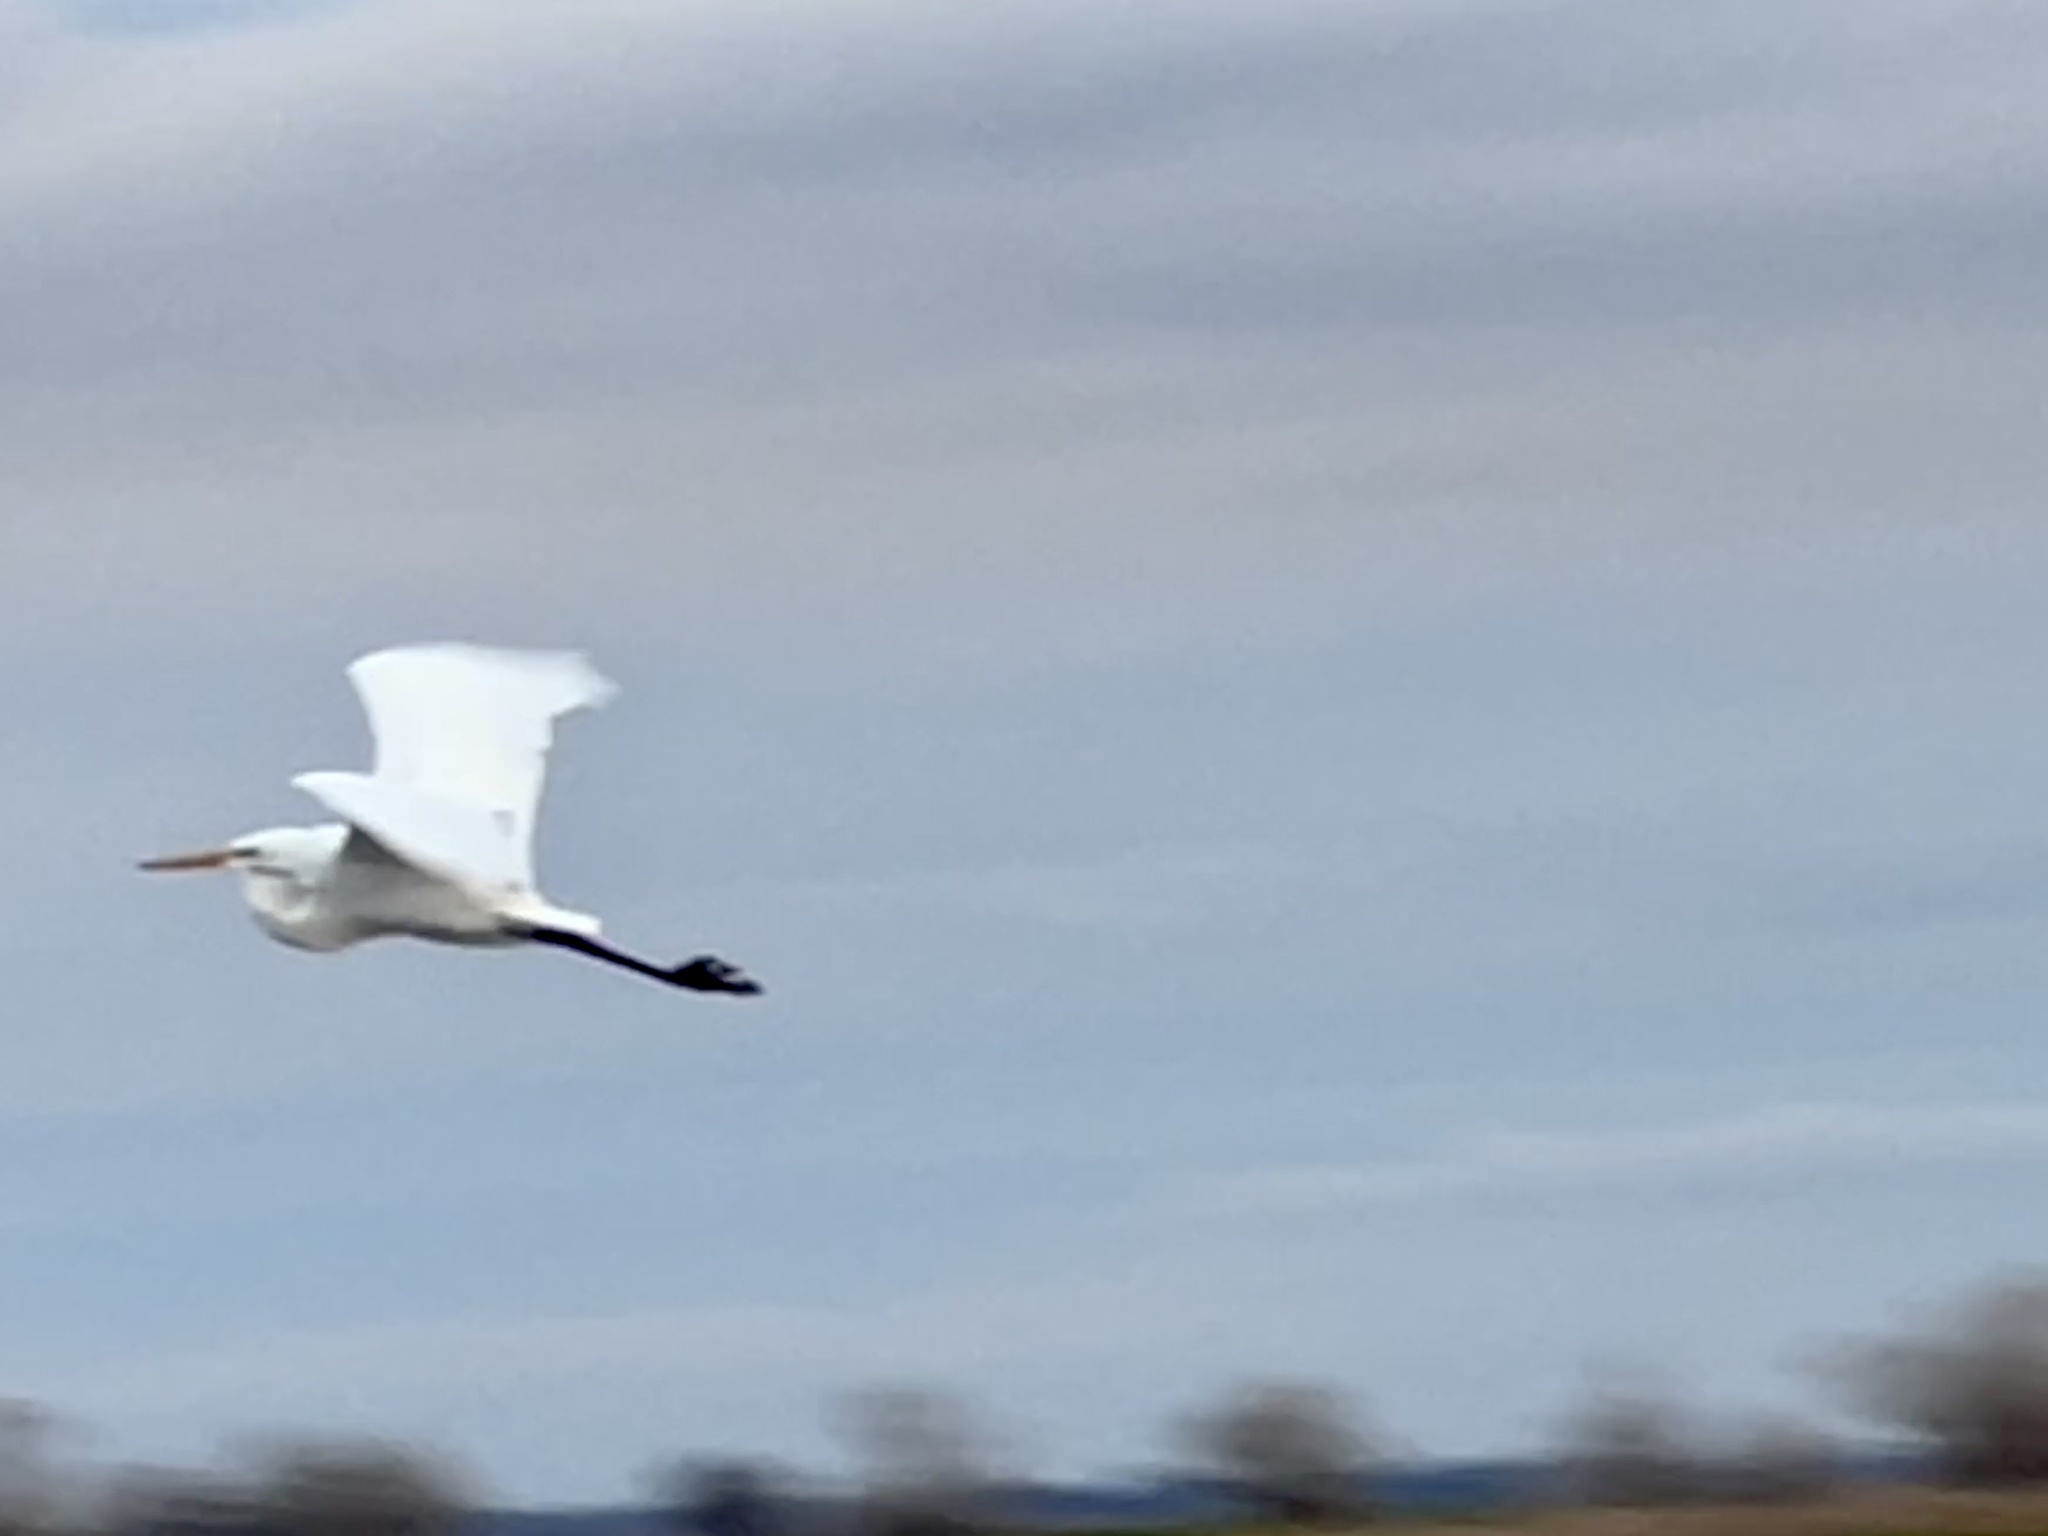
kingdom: Animalia
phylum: Chordata
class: Aves
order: Pelecaniformes
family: Ardeidae
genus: Ardea
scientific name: Ardea alba
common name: Great egret
